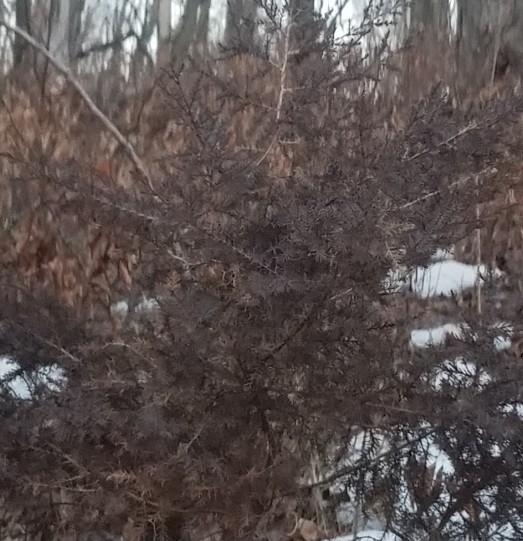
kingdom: Plantae
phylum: Tracheophyta
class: Pinopsida
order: Pinales
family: Cupressaceae
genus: Juniperus
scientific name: Juniperus virginiana
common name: Red juniper
